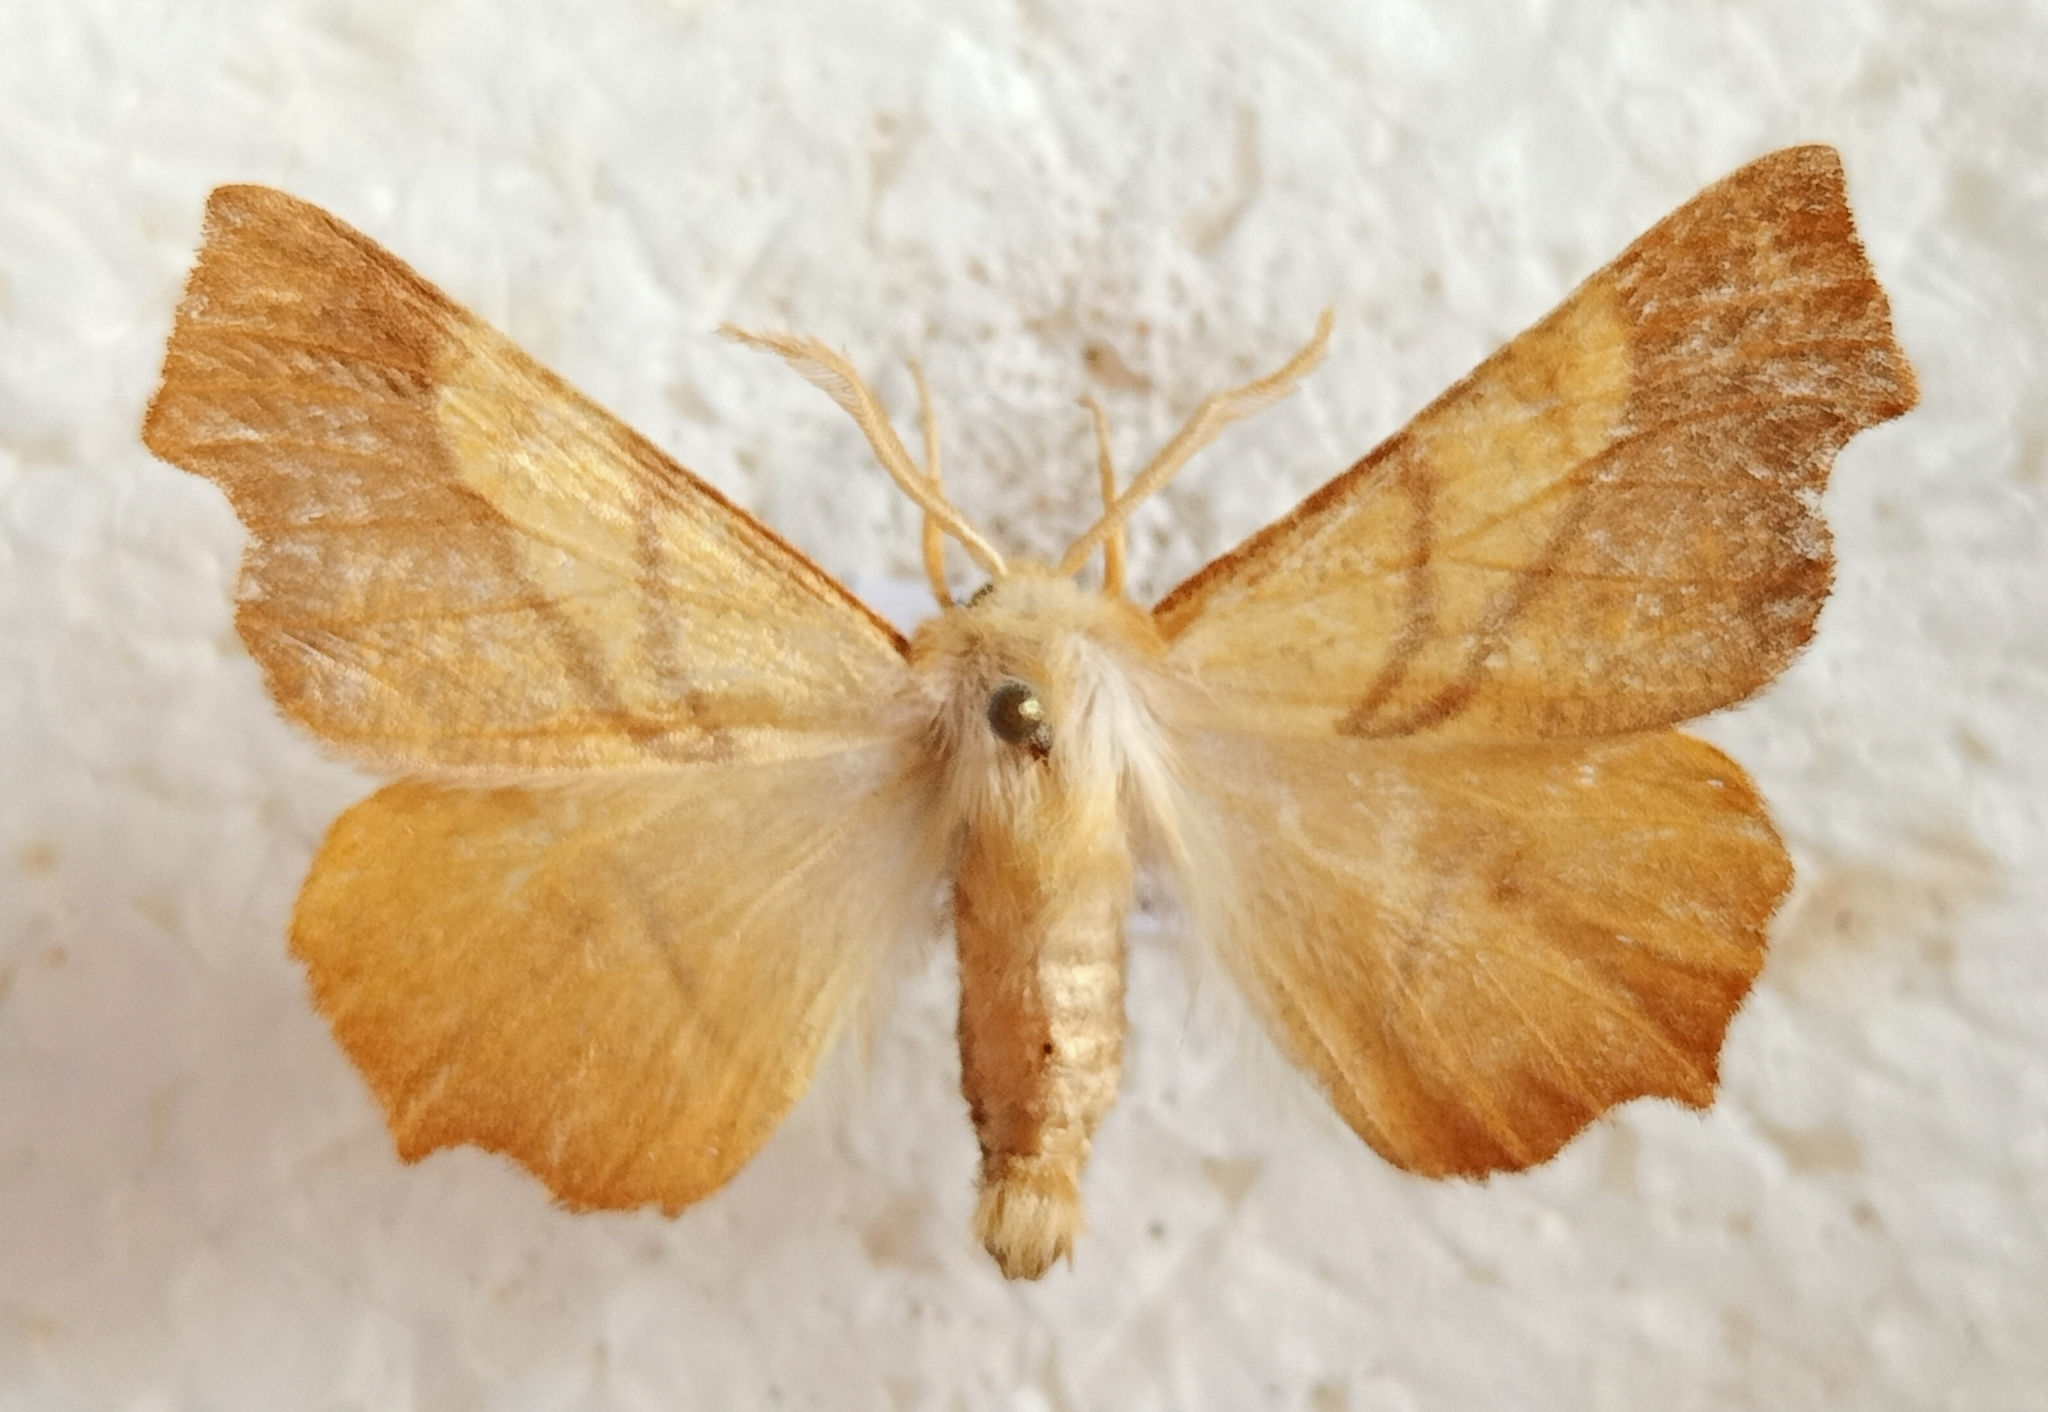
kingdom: Animalia
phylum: Arthropoda
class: Insecta
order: Lepidoptera
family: Geometridae
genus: Ennomos
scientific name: Ennomos fuscantaria
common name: Dusky thorn
